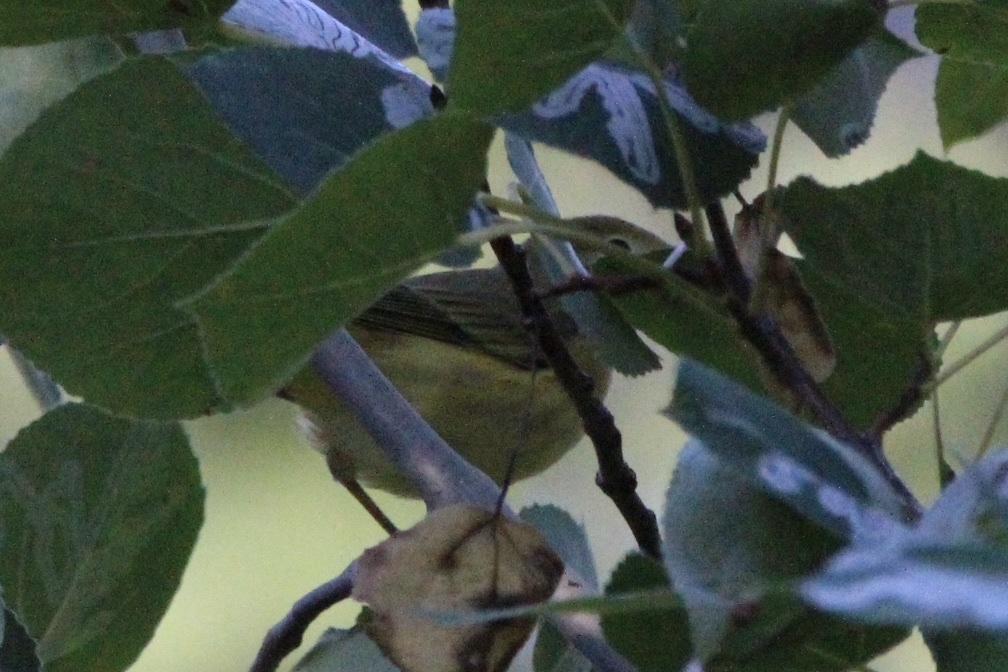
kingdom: Animalia
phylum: Chordata
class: Aves
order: Passeriformes
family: Parulidae
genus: Setophaga
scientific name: Setophaga petechia
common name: Yellow warbler
